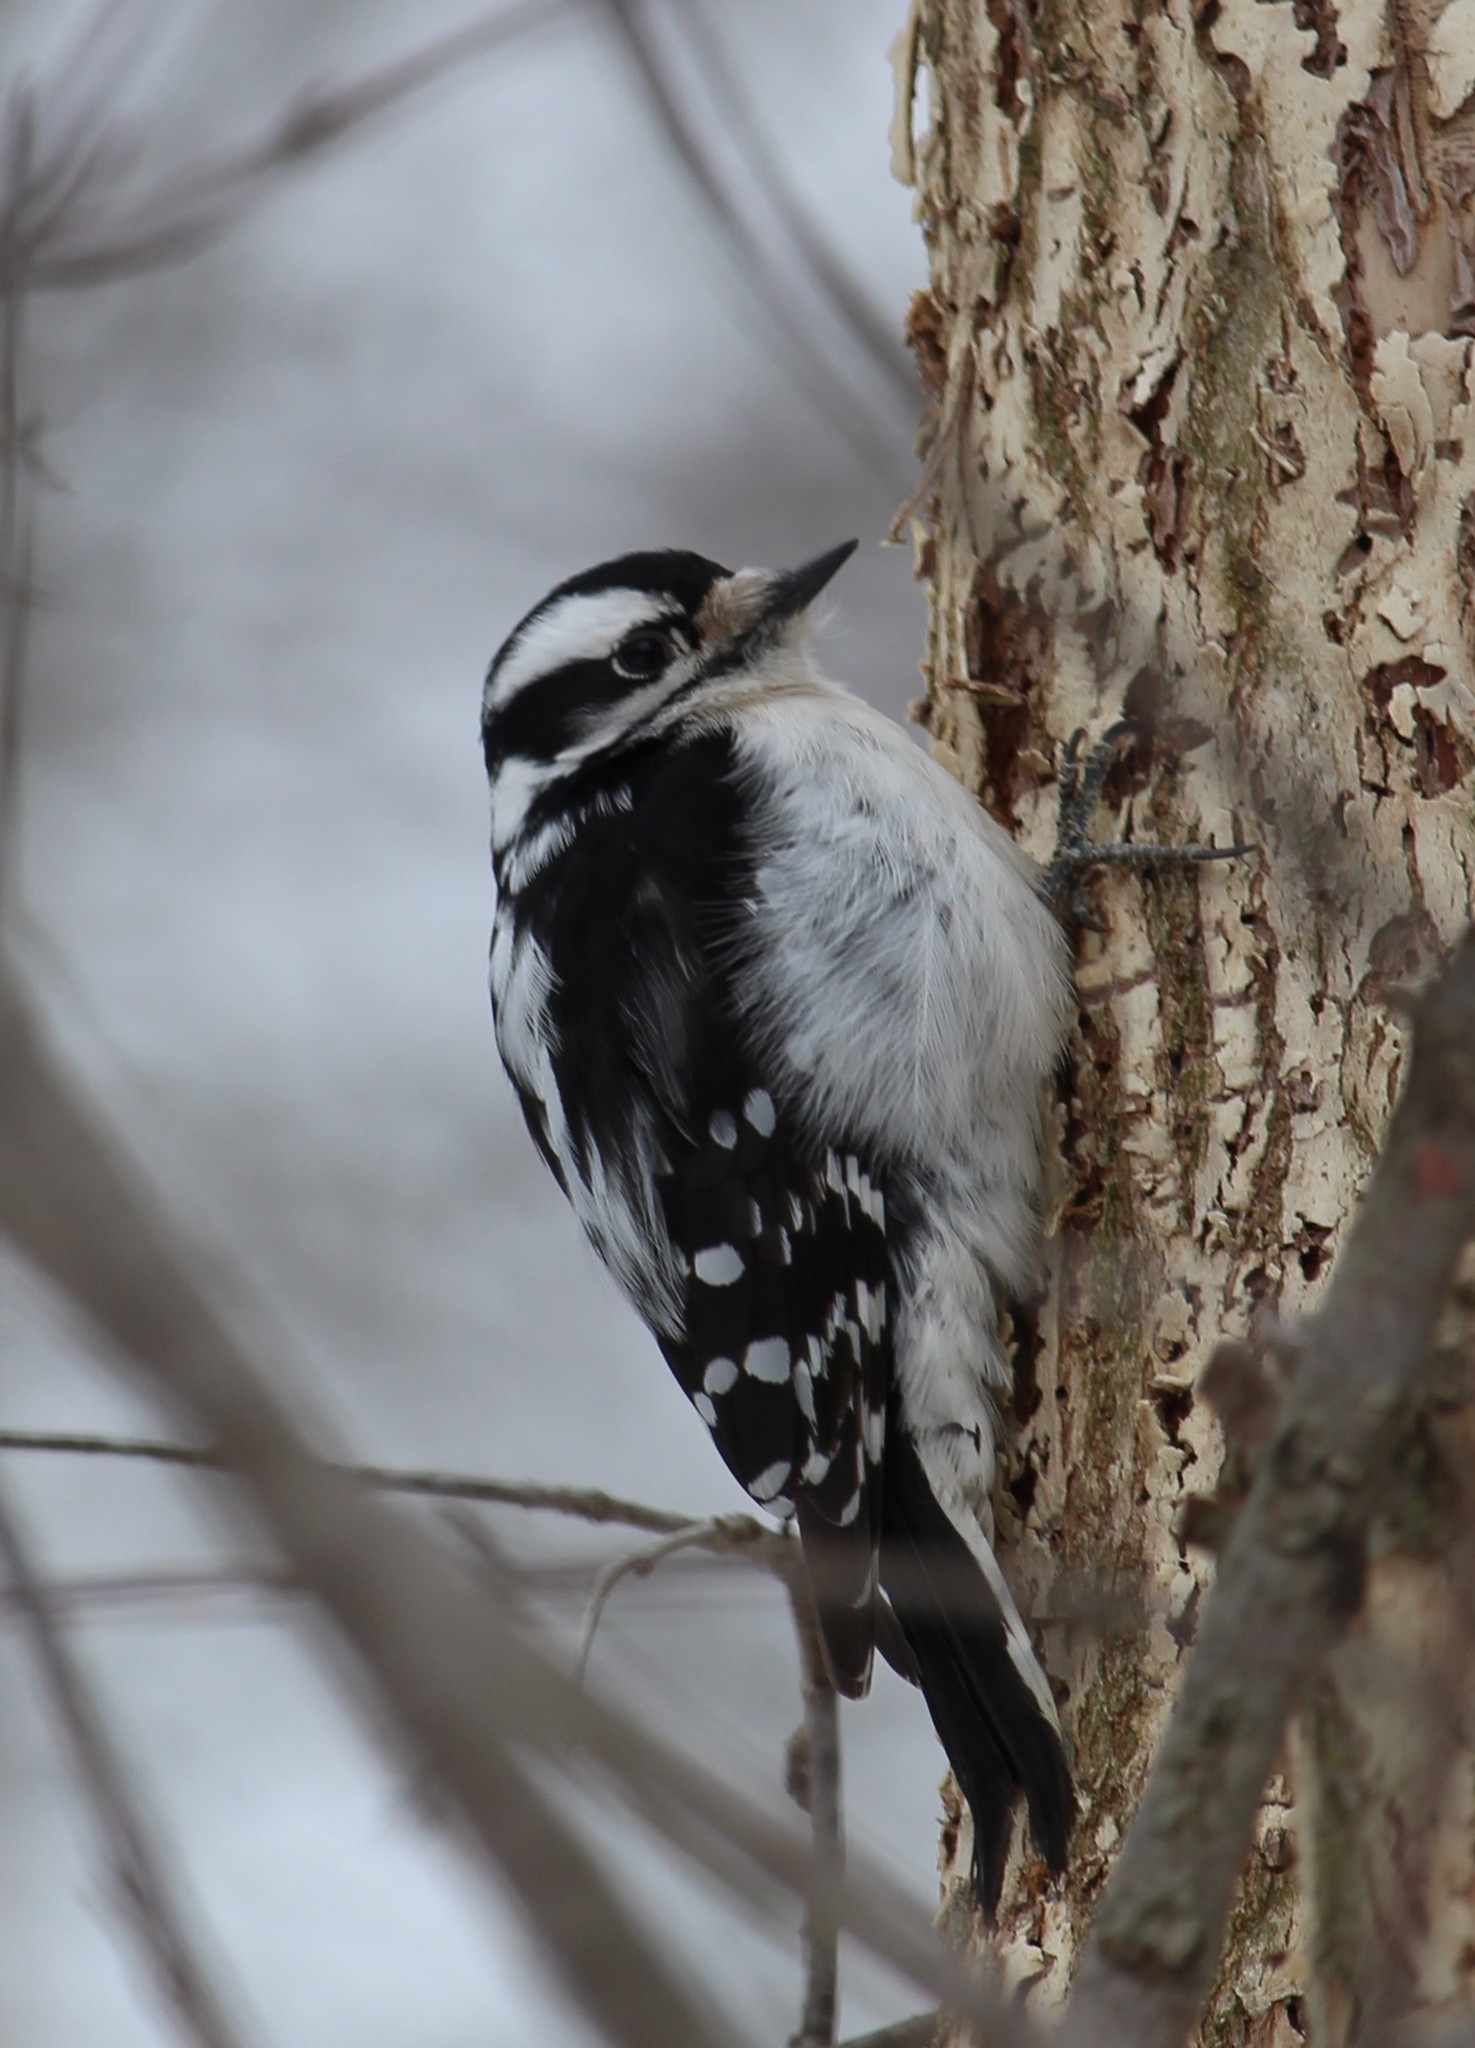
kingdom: Animalia
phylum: Chordata
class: Aves
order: Piciformes
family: Picidae
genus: Dryobates
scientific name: Dryobates pubescens
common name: Downy woodpecker
